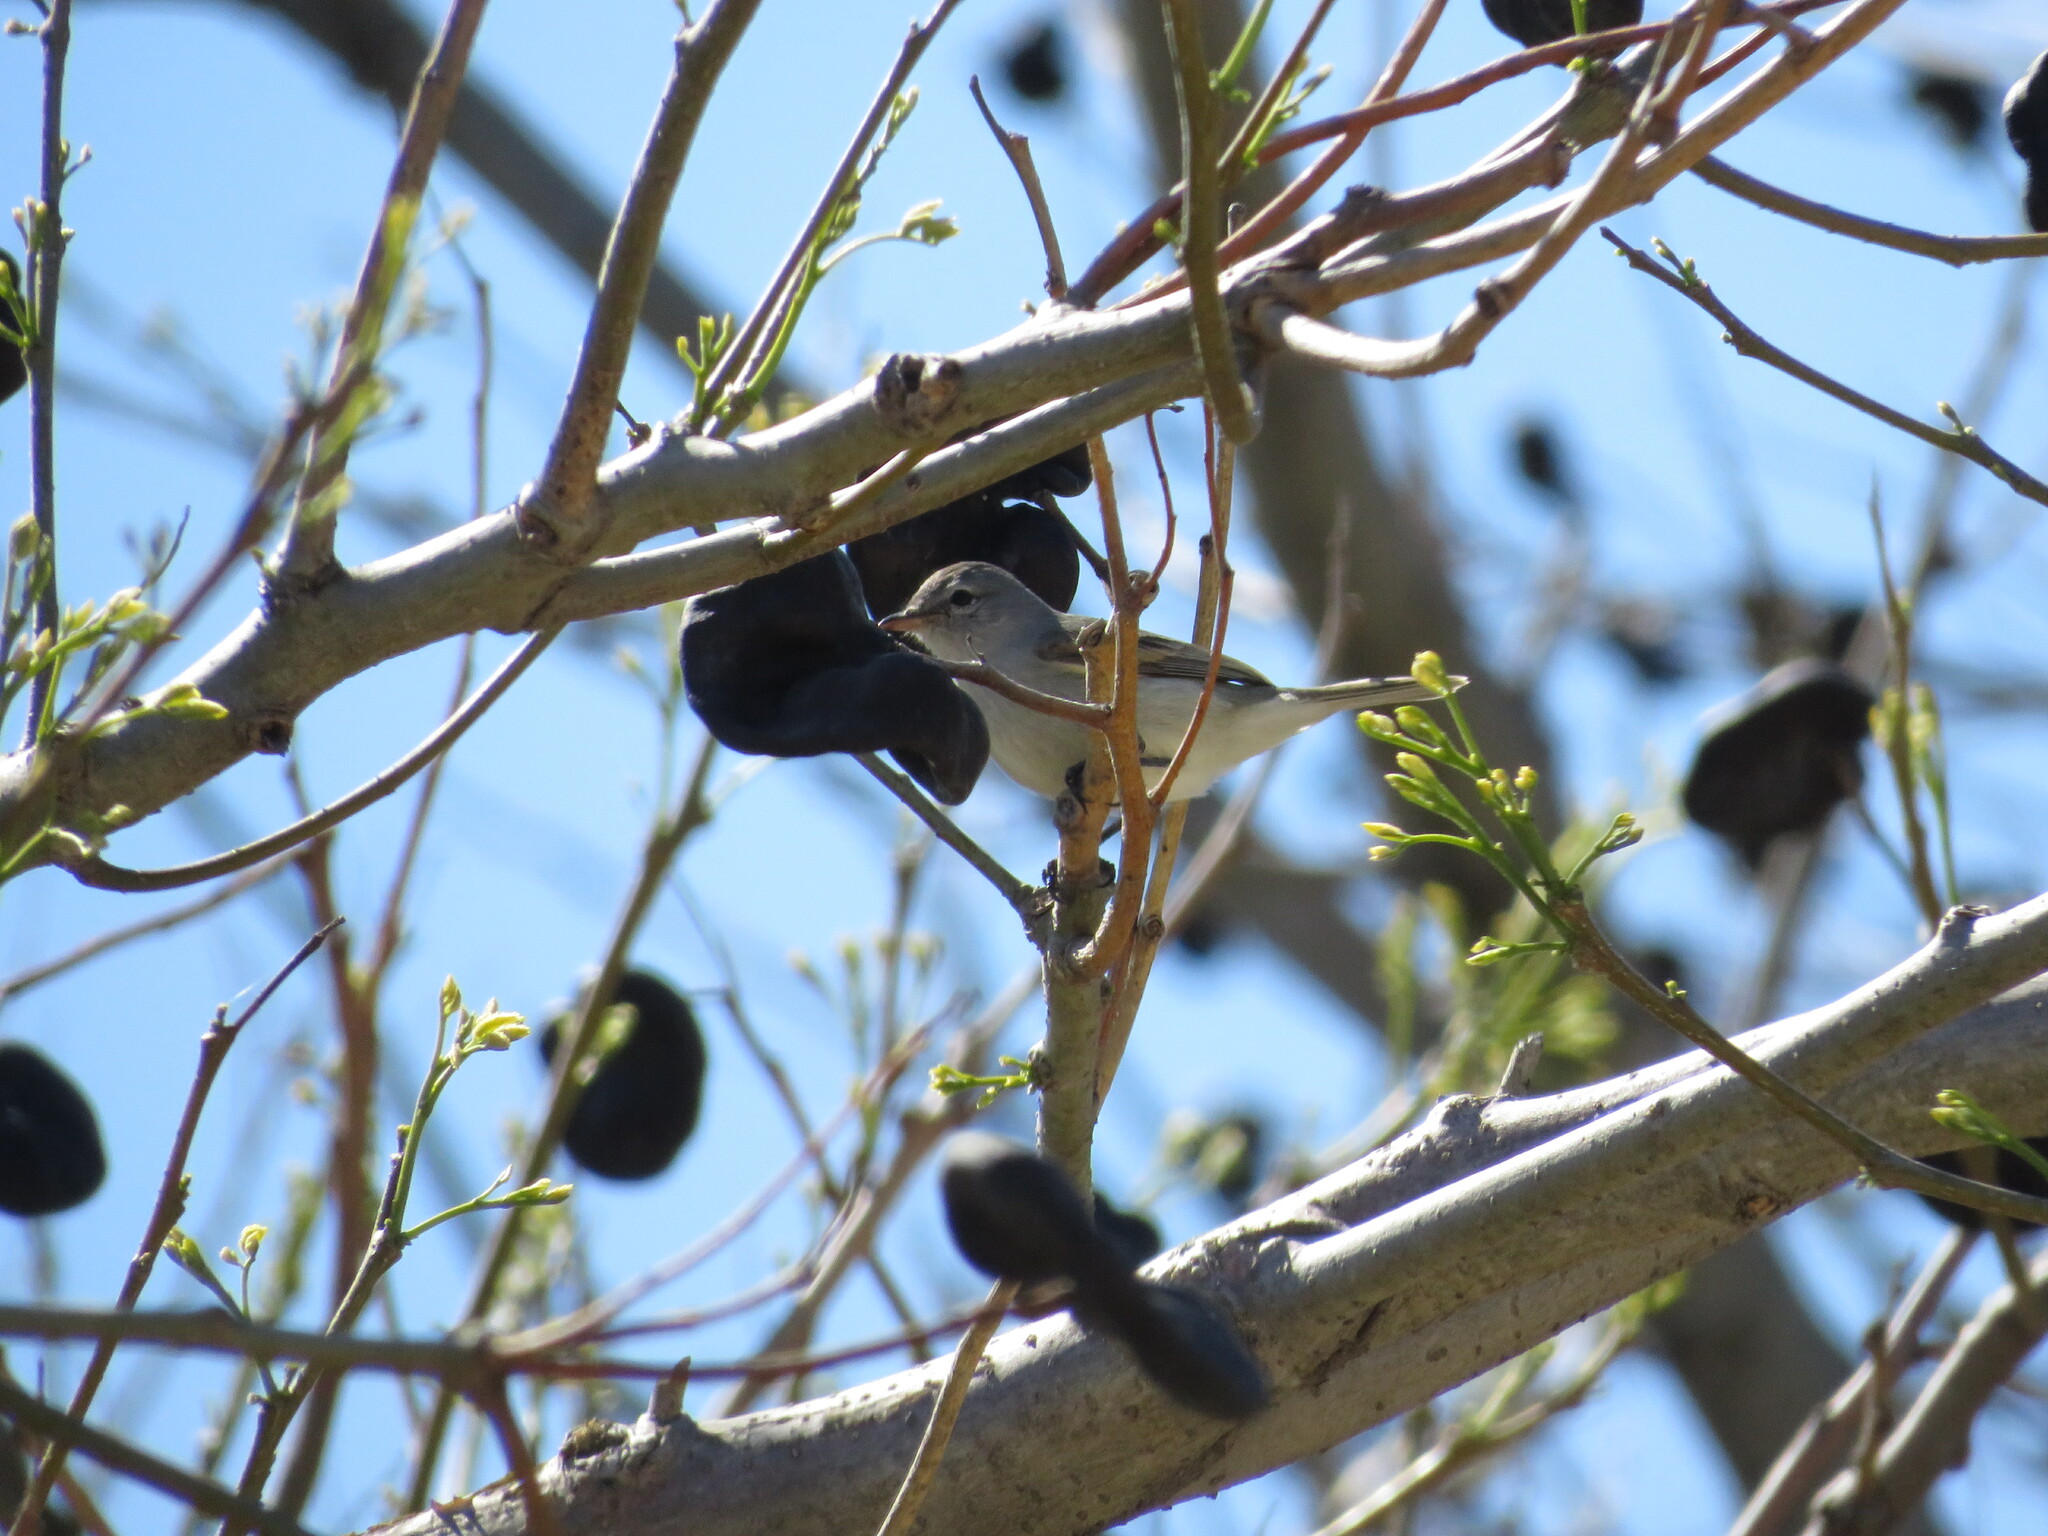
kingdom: Animalia
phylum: Chordata
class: Aves
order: Passeriformes
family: Tyrannidae
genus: Camptostoma
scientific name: Camptostoma obsoletum
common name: Southern beardless-tyrannulet
